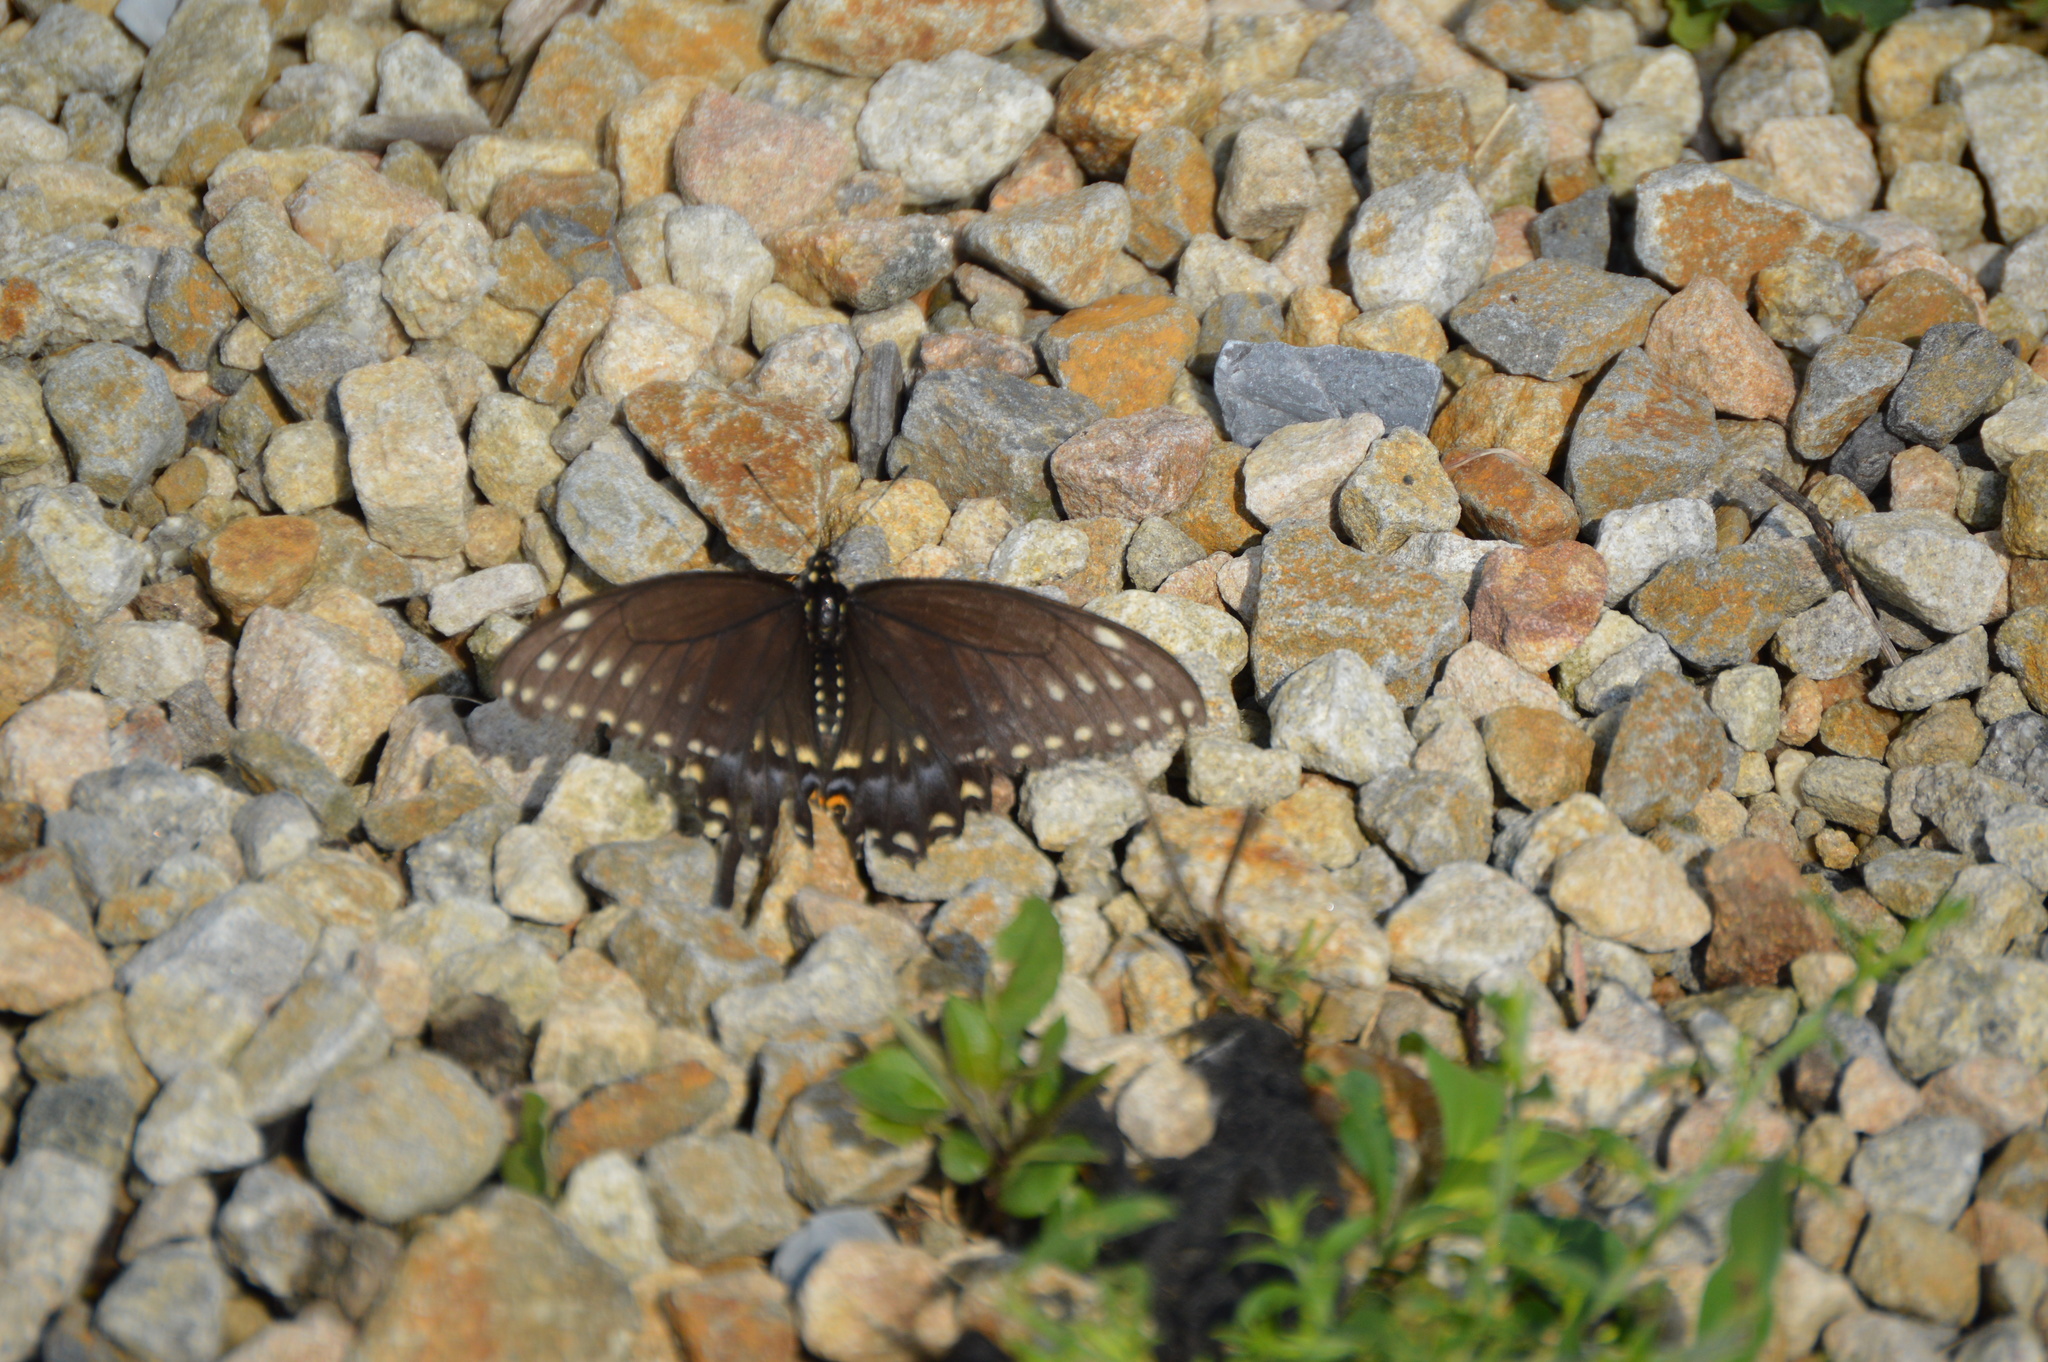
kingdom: Animalia
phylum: Arthropoda
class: Insecta
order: Lepidoptera
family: Papilionidae
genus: Papilio
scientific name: Papilio polyxenes
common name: Black swallowtail
